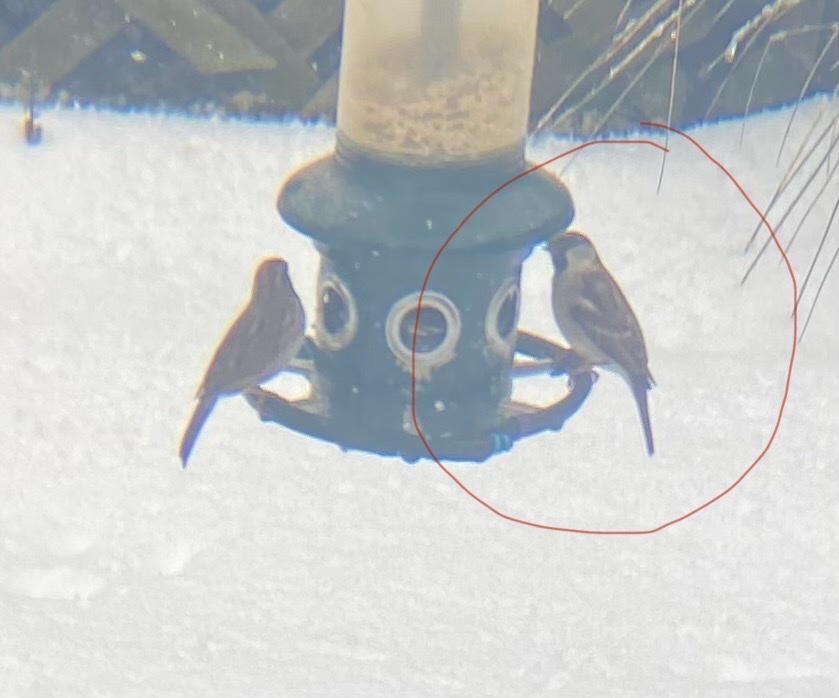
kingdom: Animalia
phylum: Chordata
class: Aves
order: Passeriformes
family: Passeridae
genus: Passer
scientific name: Passer domesticus
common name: House sparrow
